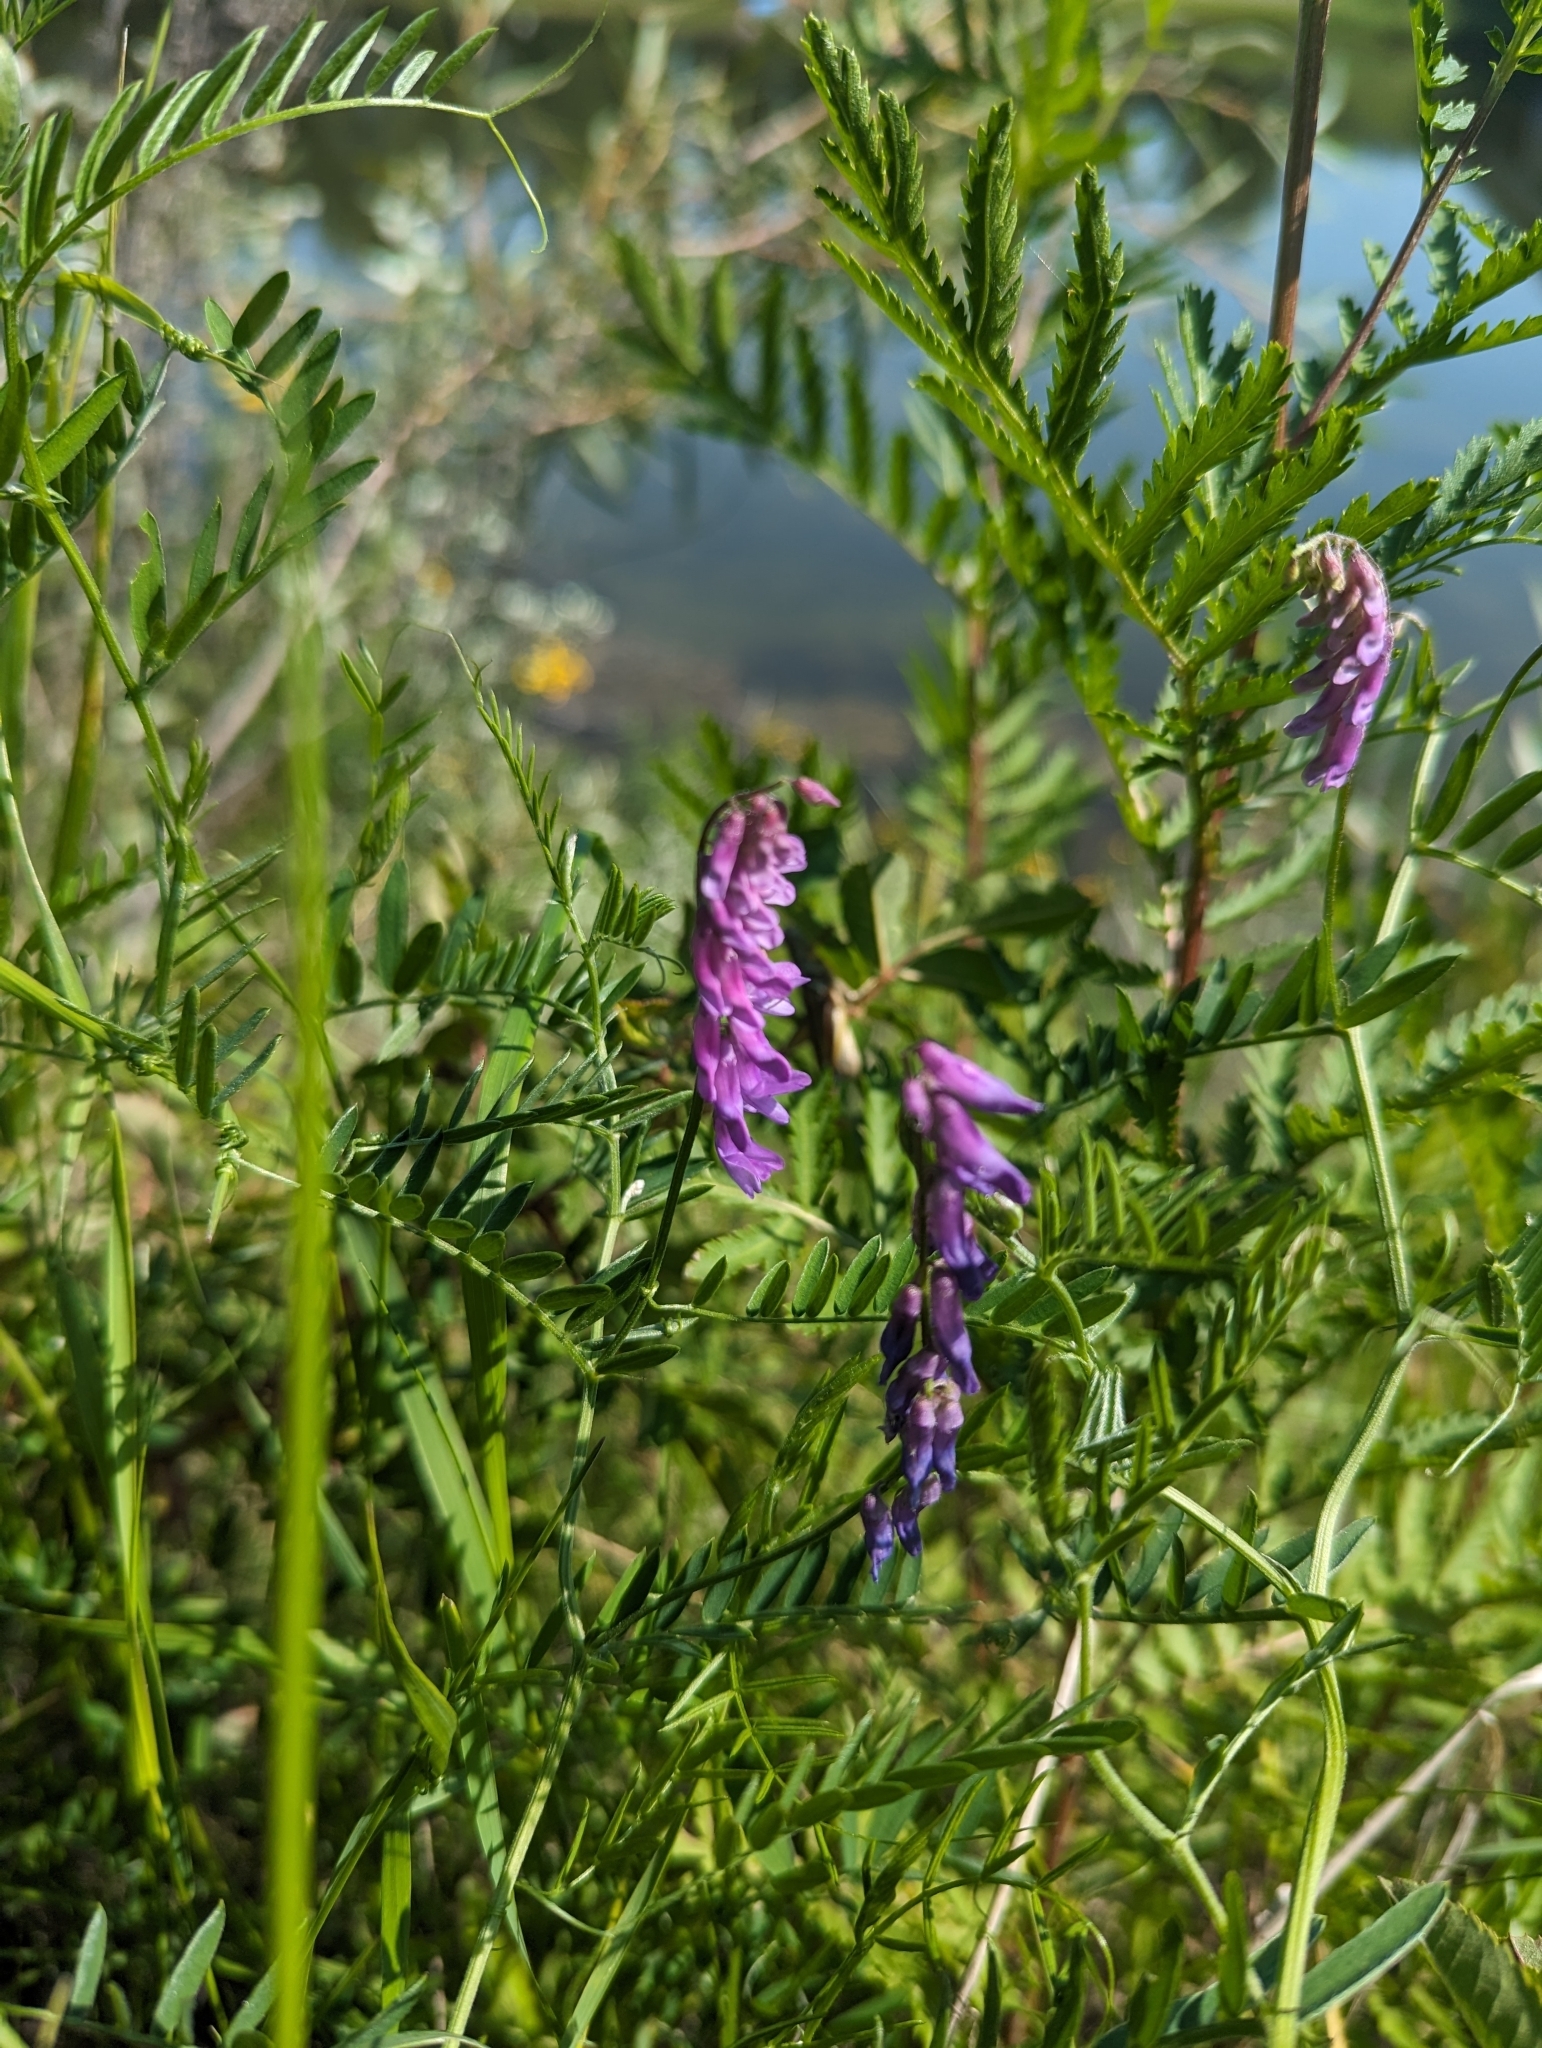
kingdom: Plantae
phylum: Tracheophyta
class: Magnoliopsida
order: Fabales
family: Fabaceae
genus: Vicia
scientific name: Vicia cracca
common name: Bird vetch
